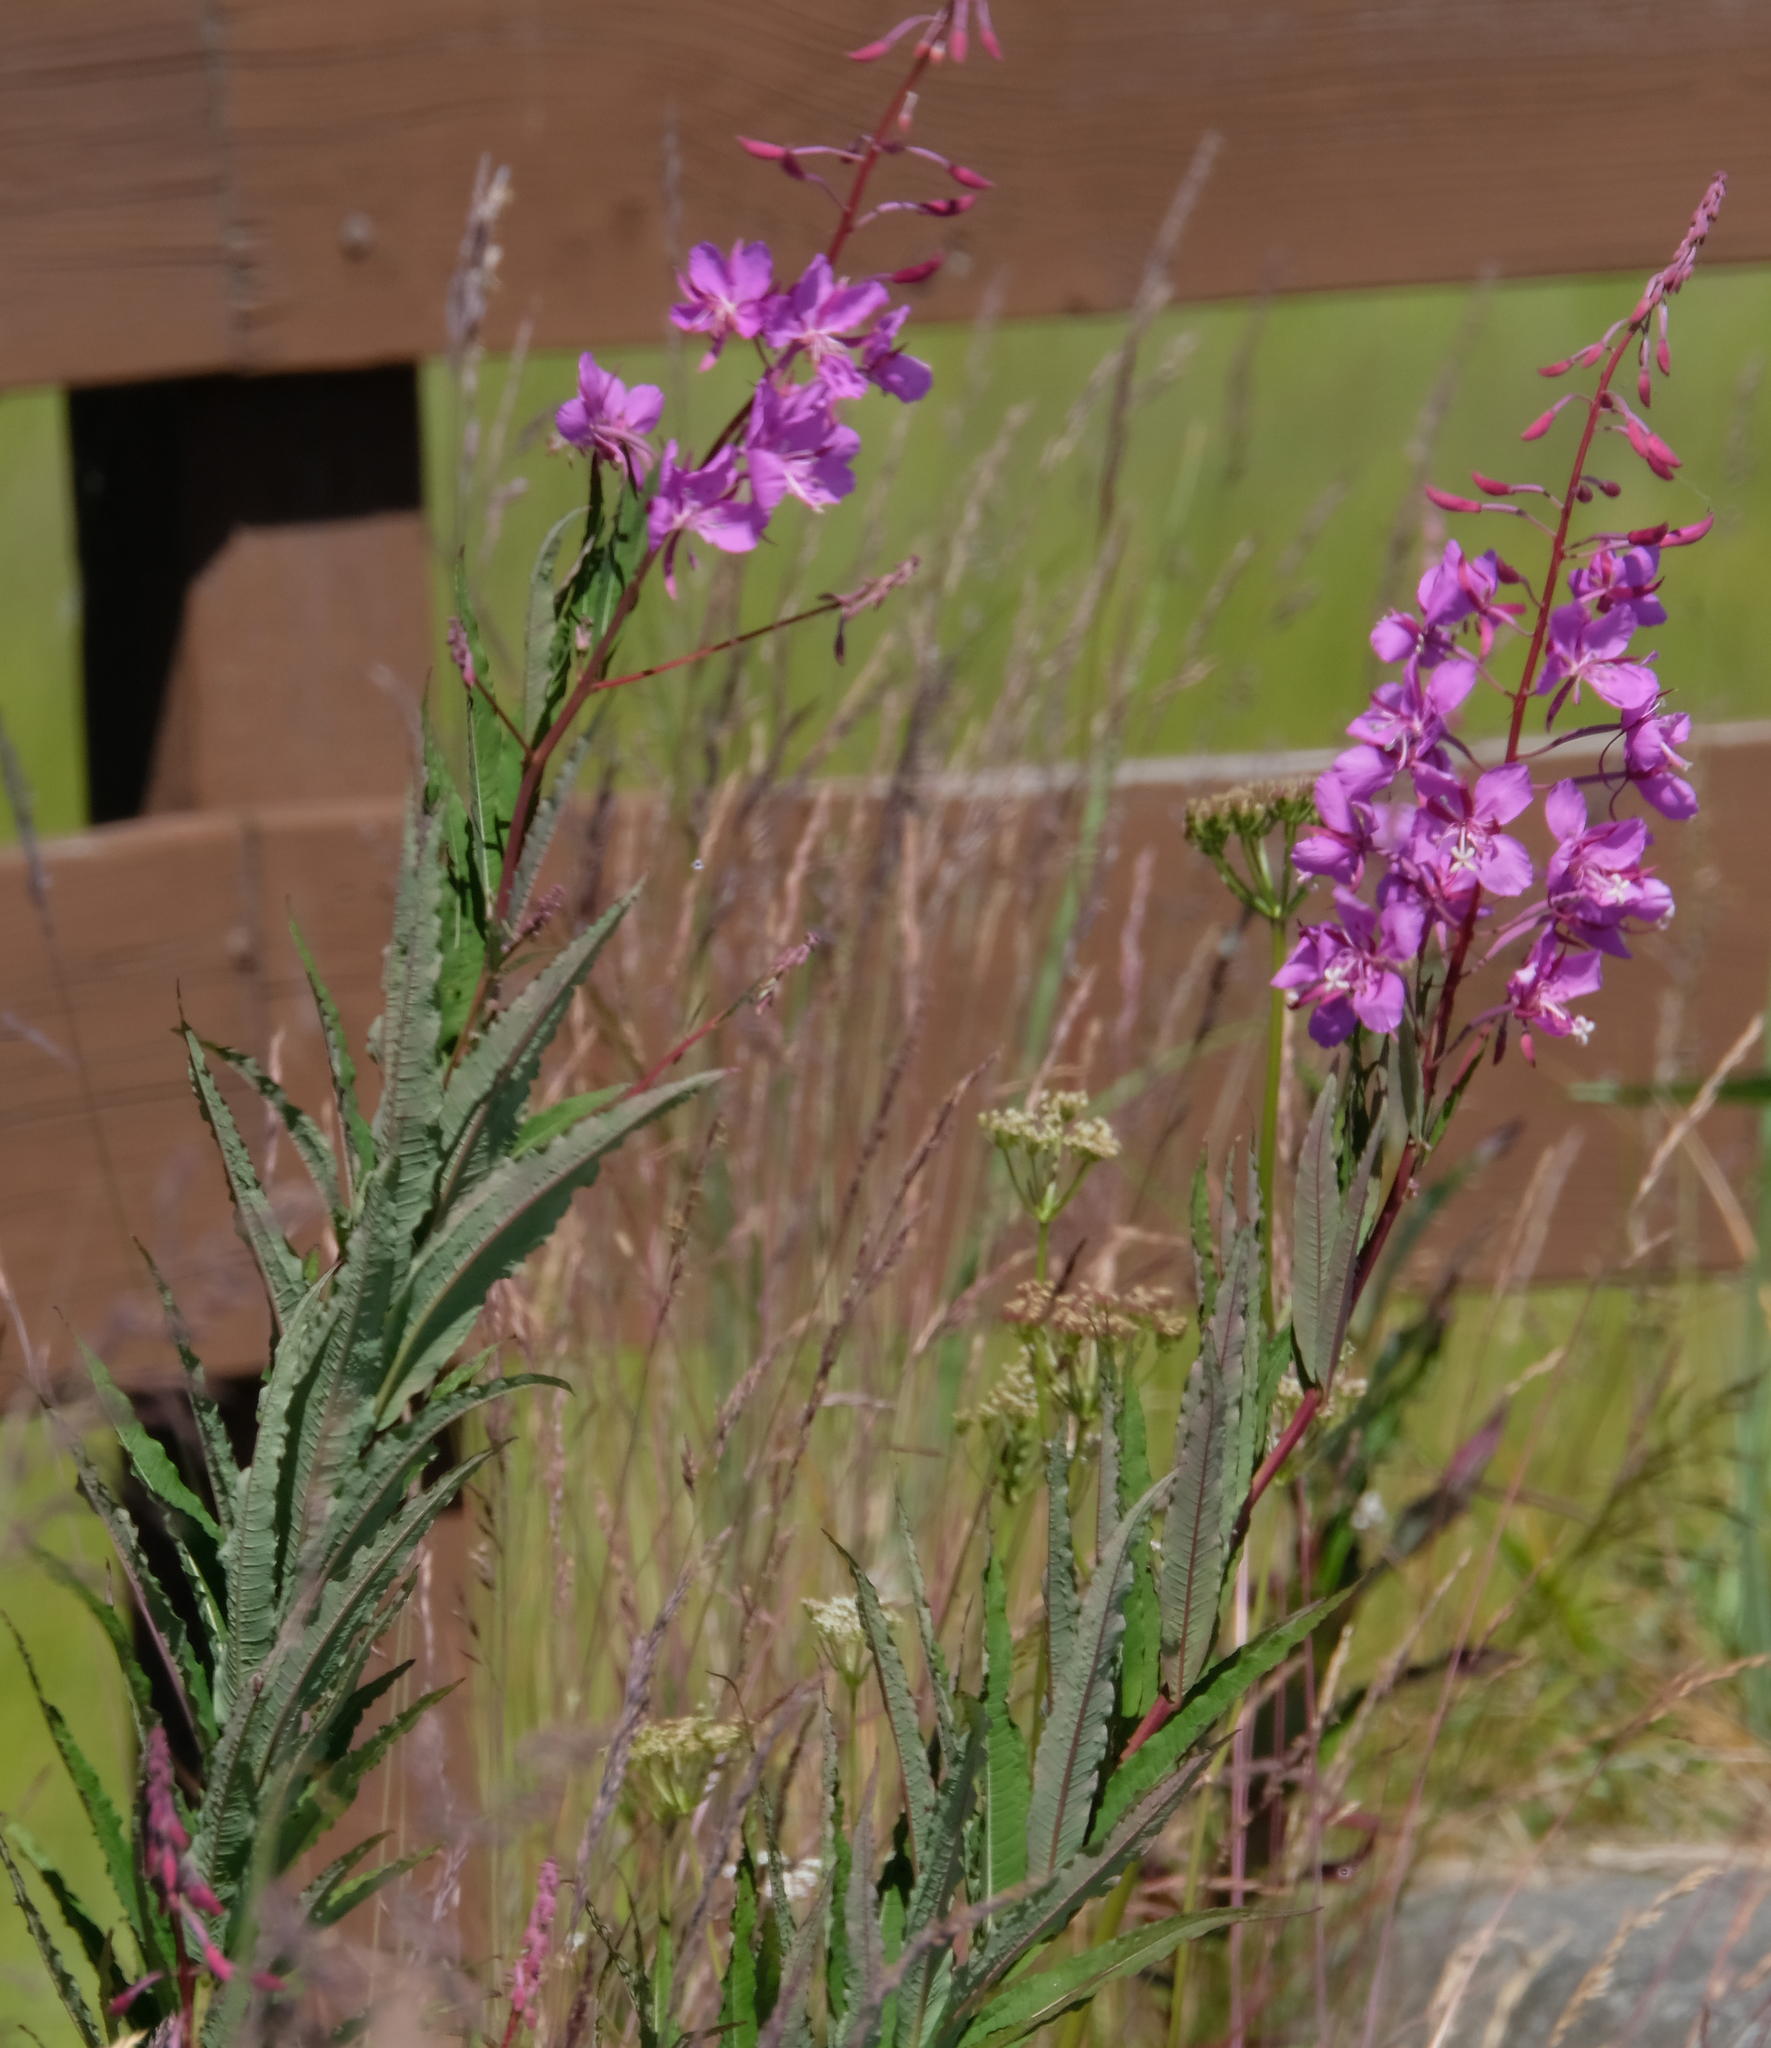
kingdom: Plantae
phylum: Tracheophyta
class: Magnoliopsida
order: Myrtales
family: Onagraceae
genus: Chamaenerion
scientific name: Chamaenerion angustifolium
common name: Fireweed
